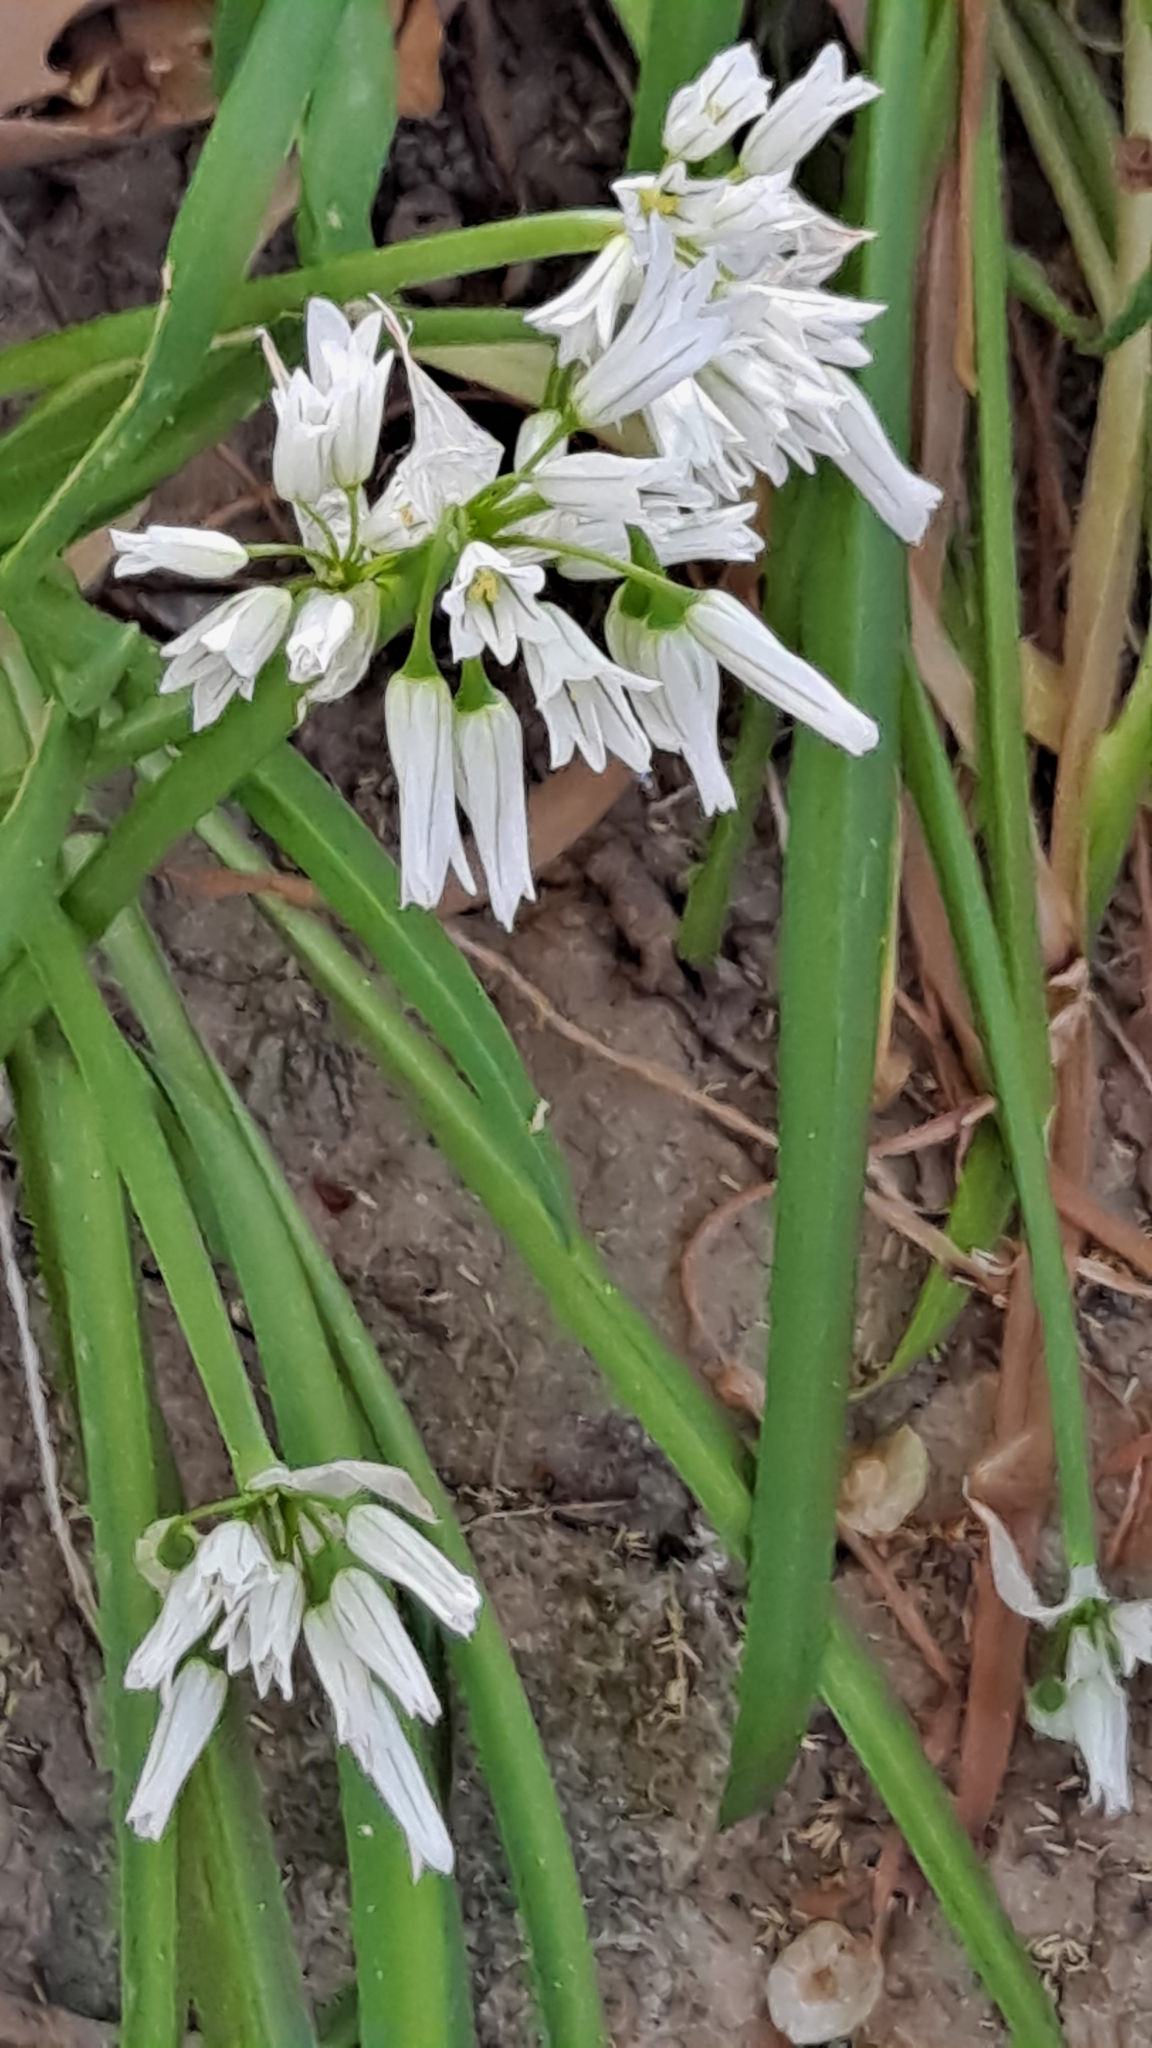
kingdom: Plantae
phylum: Tracheophyta
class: Liliopsida
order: Asparagales
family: Amaryllidaceae
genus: Allium
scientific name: Allium triquetrum
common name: Three-cornered garlic
